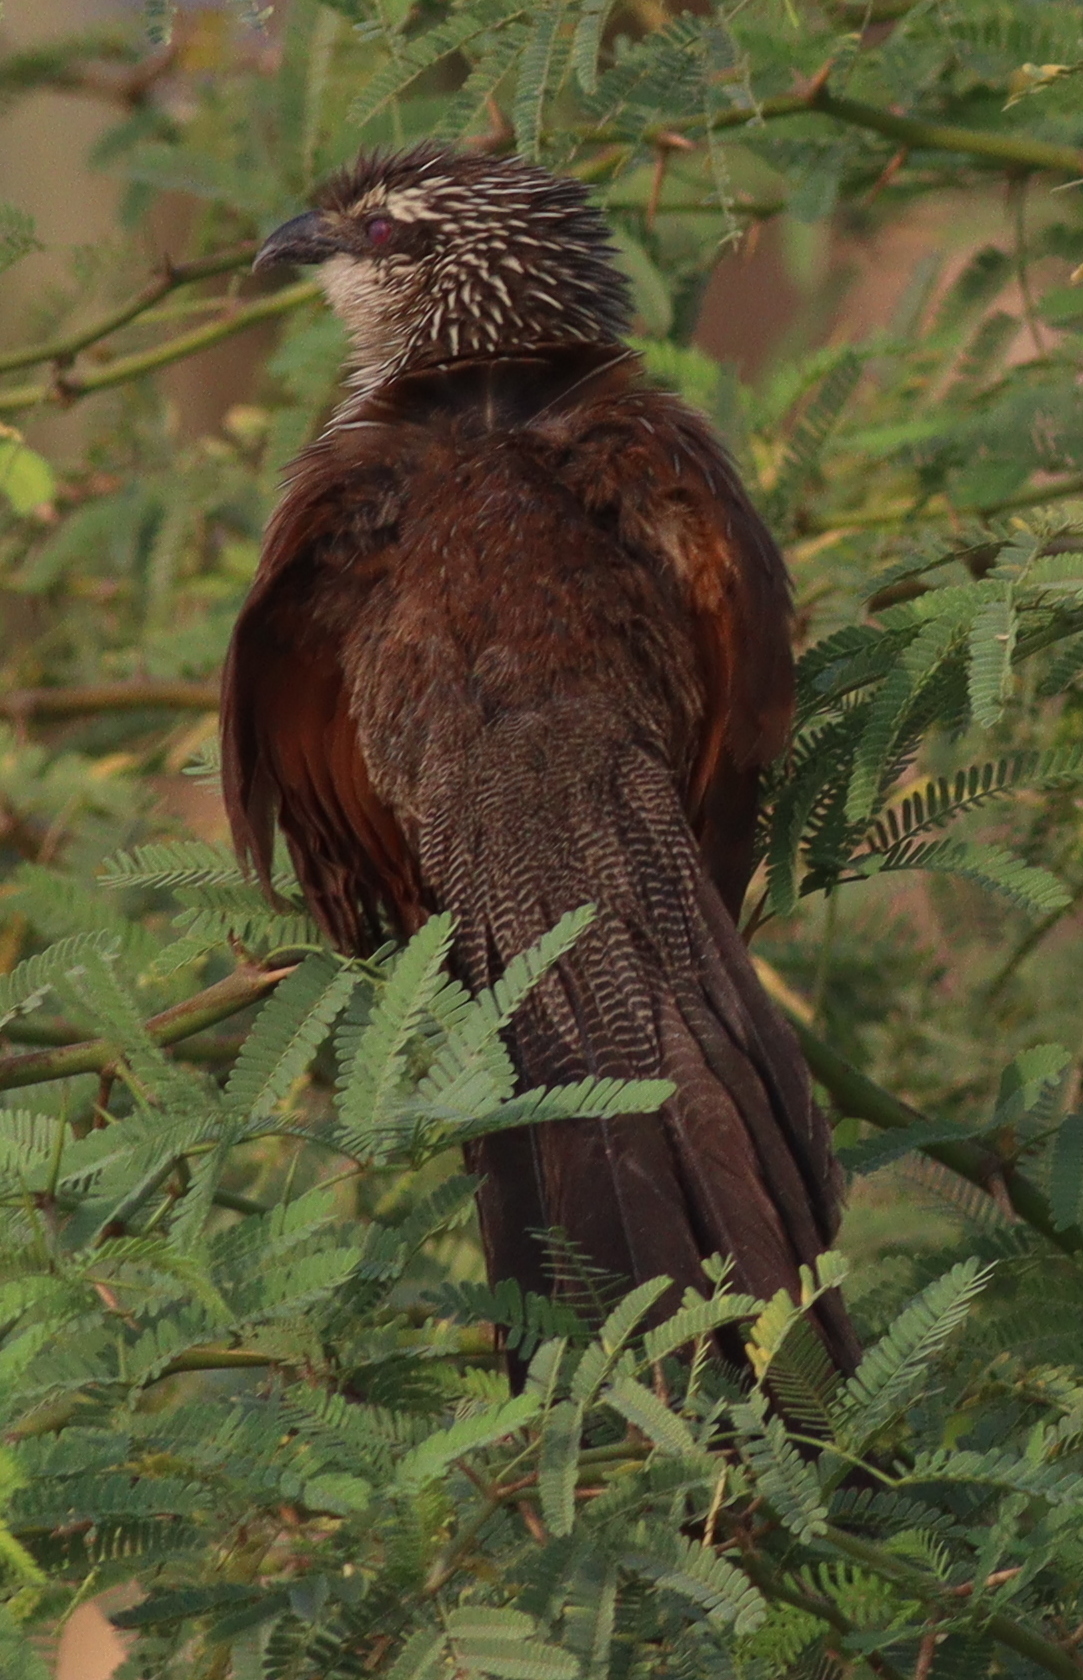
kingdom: Animalia
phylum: Chordata
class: Aves
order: Cuculiformes
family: Cuculidae
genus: Centropus
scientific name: Centropus superciliosus
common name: White-browed coucal
